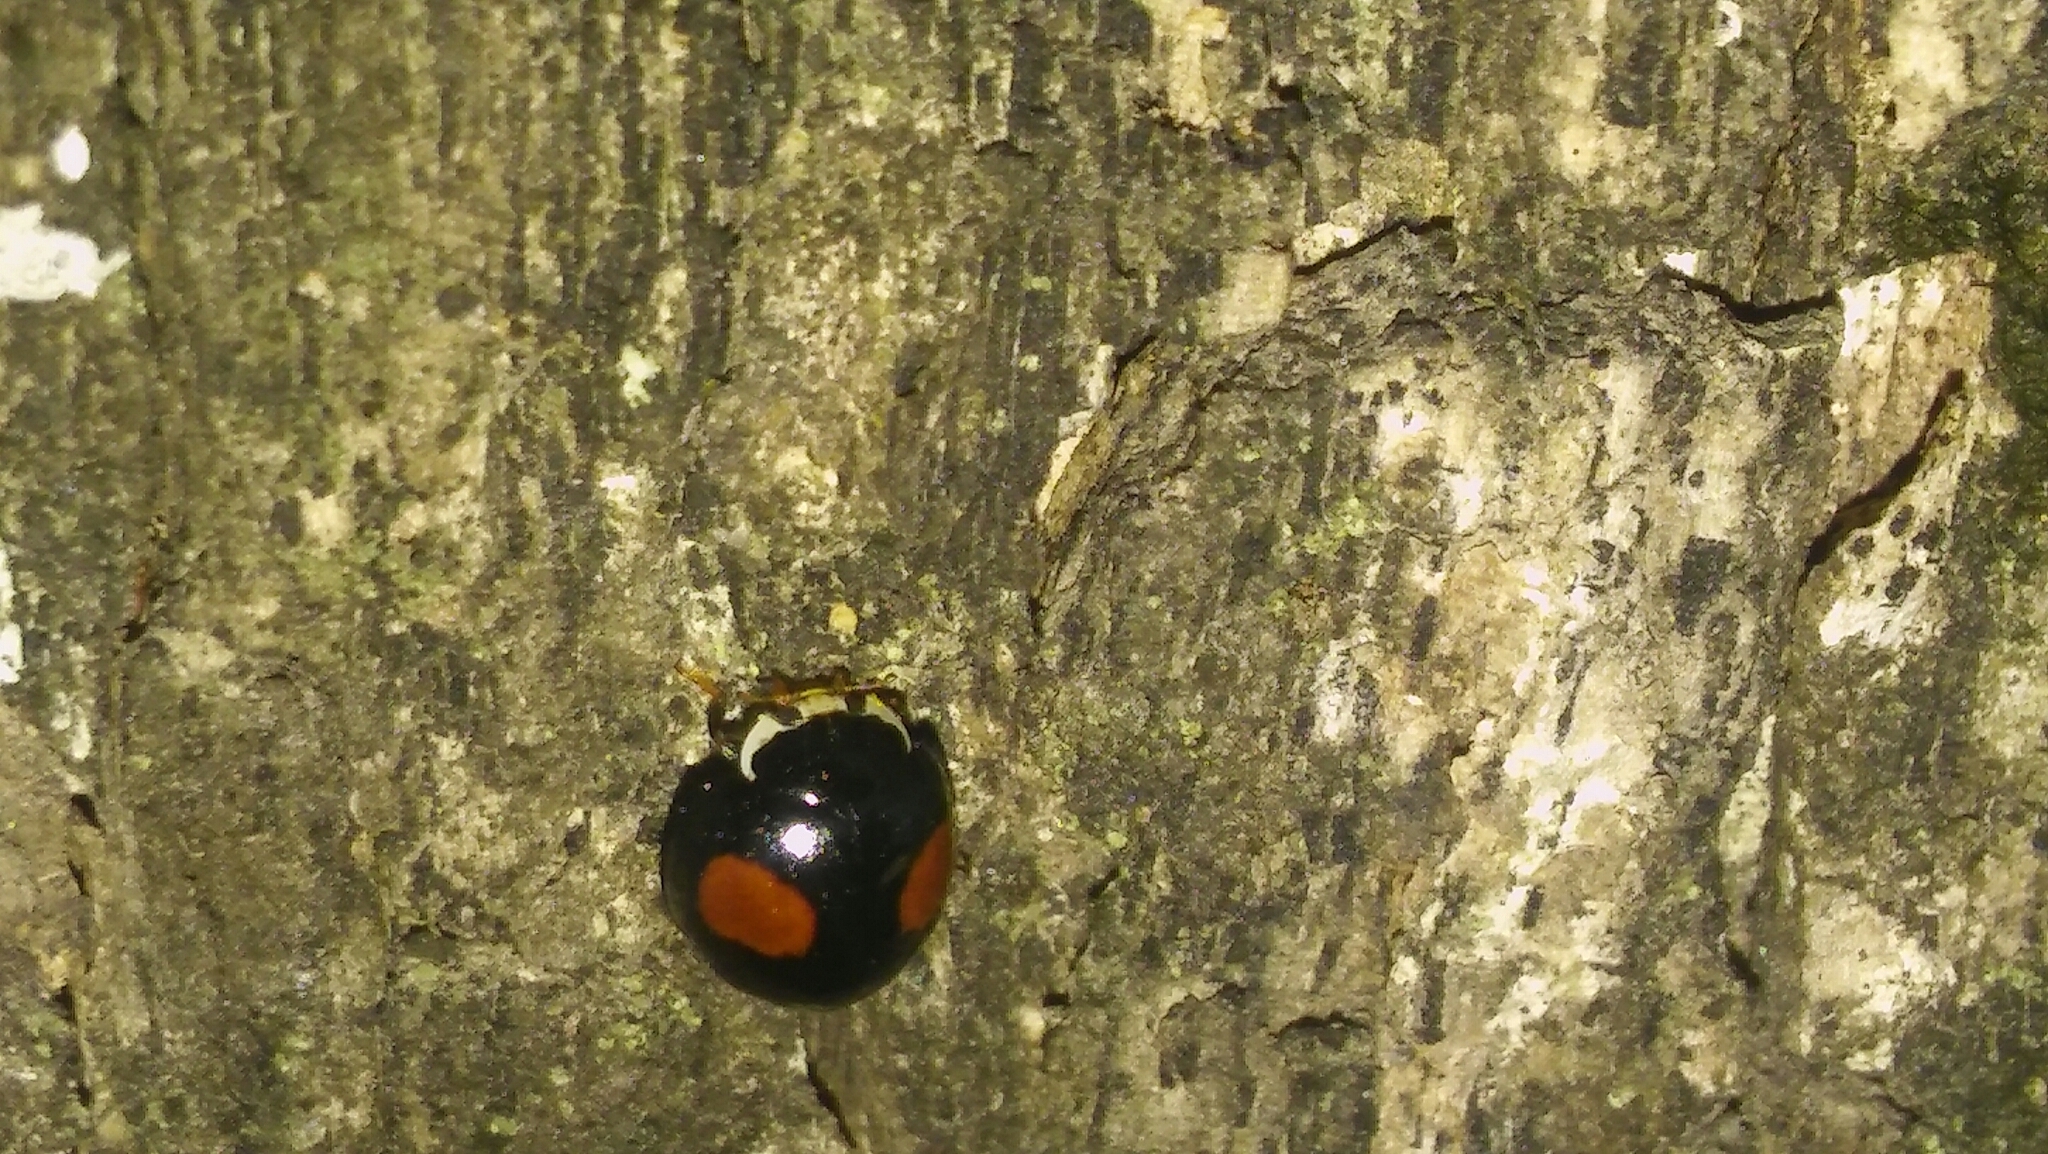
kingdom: Animalia
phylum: Arthropoda
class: Insecta
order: Coleoptera
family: Coccinellidae
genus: Olla
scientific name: Olla v-nigrum
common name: Ashy gray lady beetle
